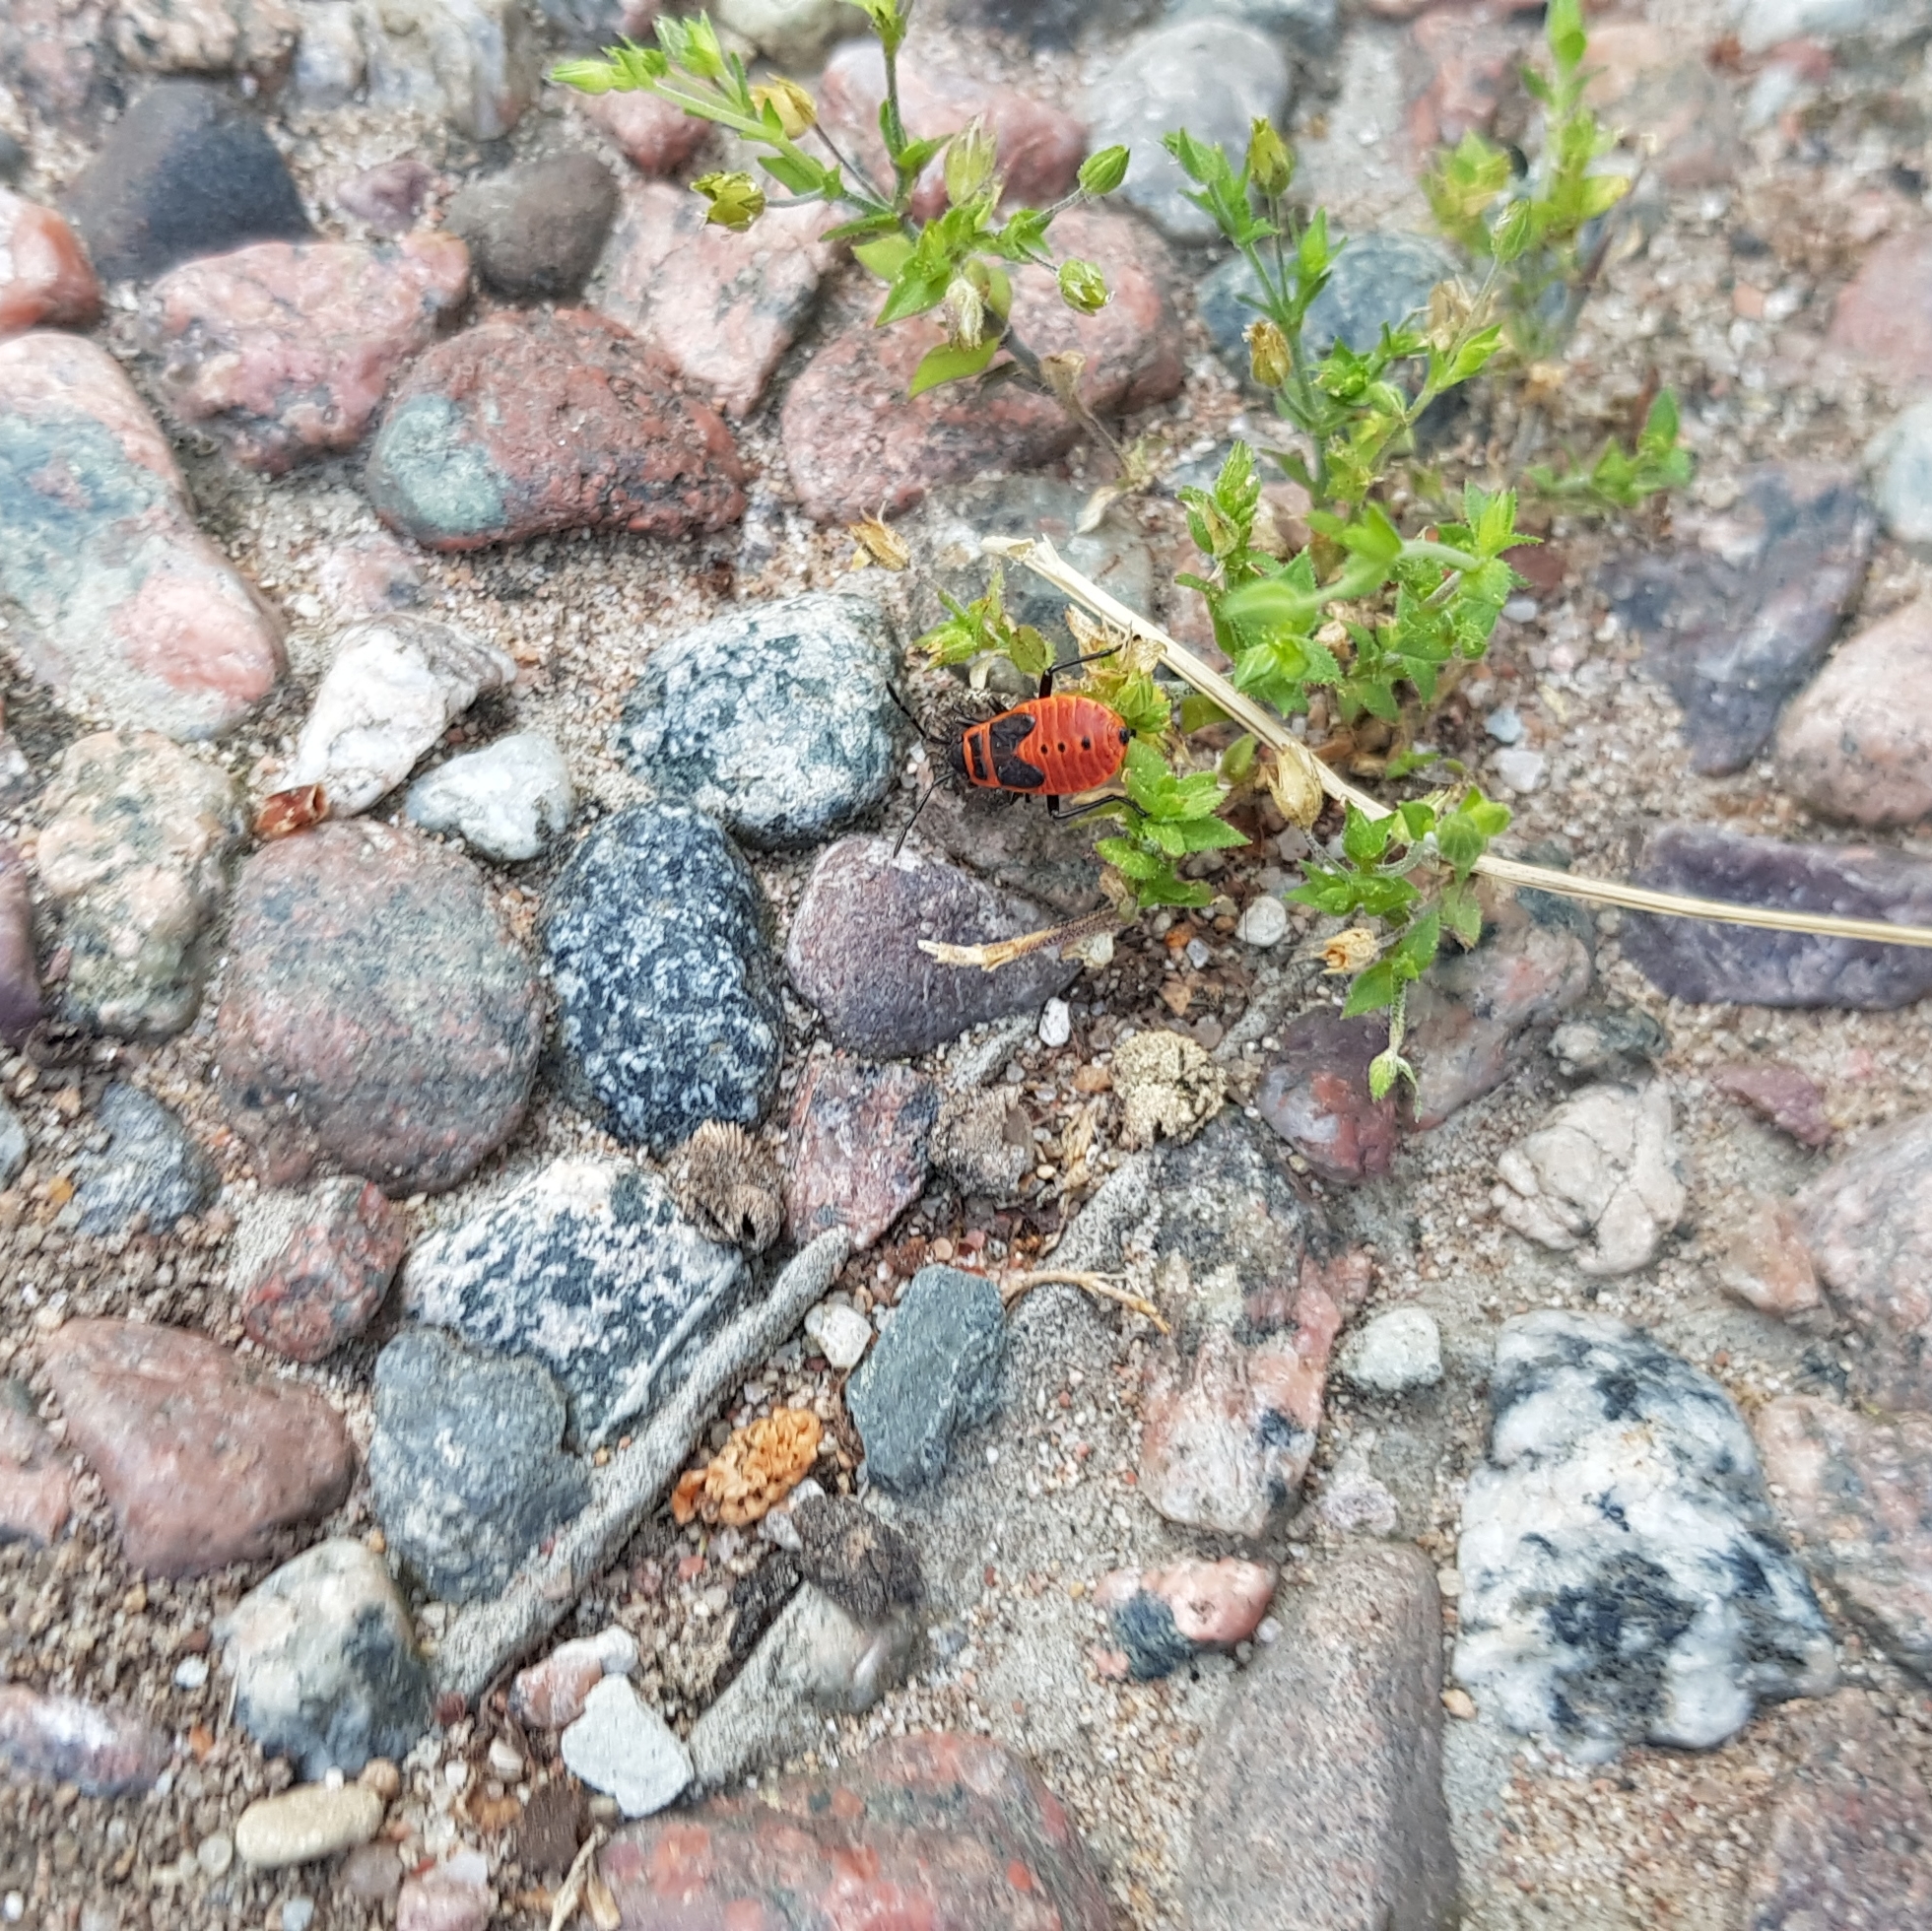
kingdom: Animalia
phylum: Arthropoda
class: Insecta
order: Hemiptera
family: Pyrrhocoridae
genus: Pyrrhocoris
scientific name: Pyrrhocoris apterus
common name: Firebug
